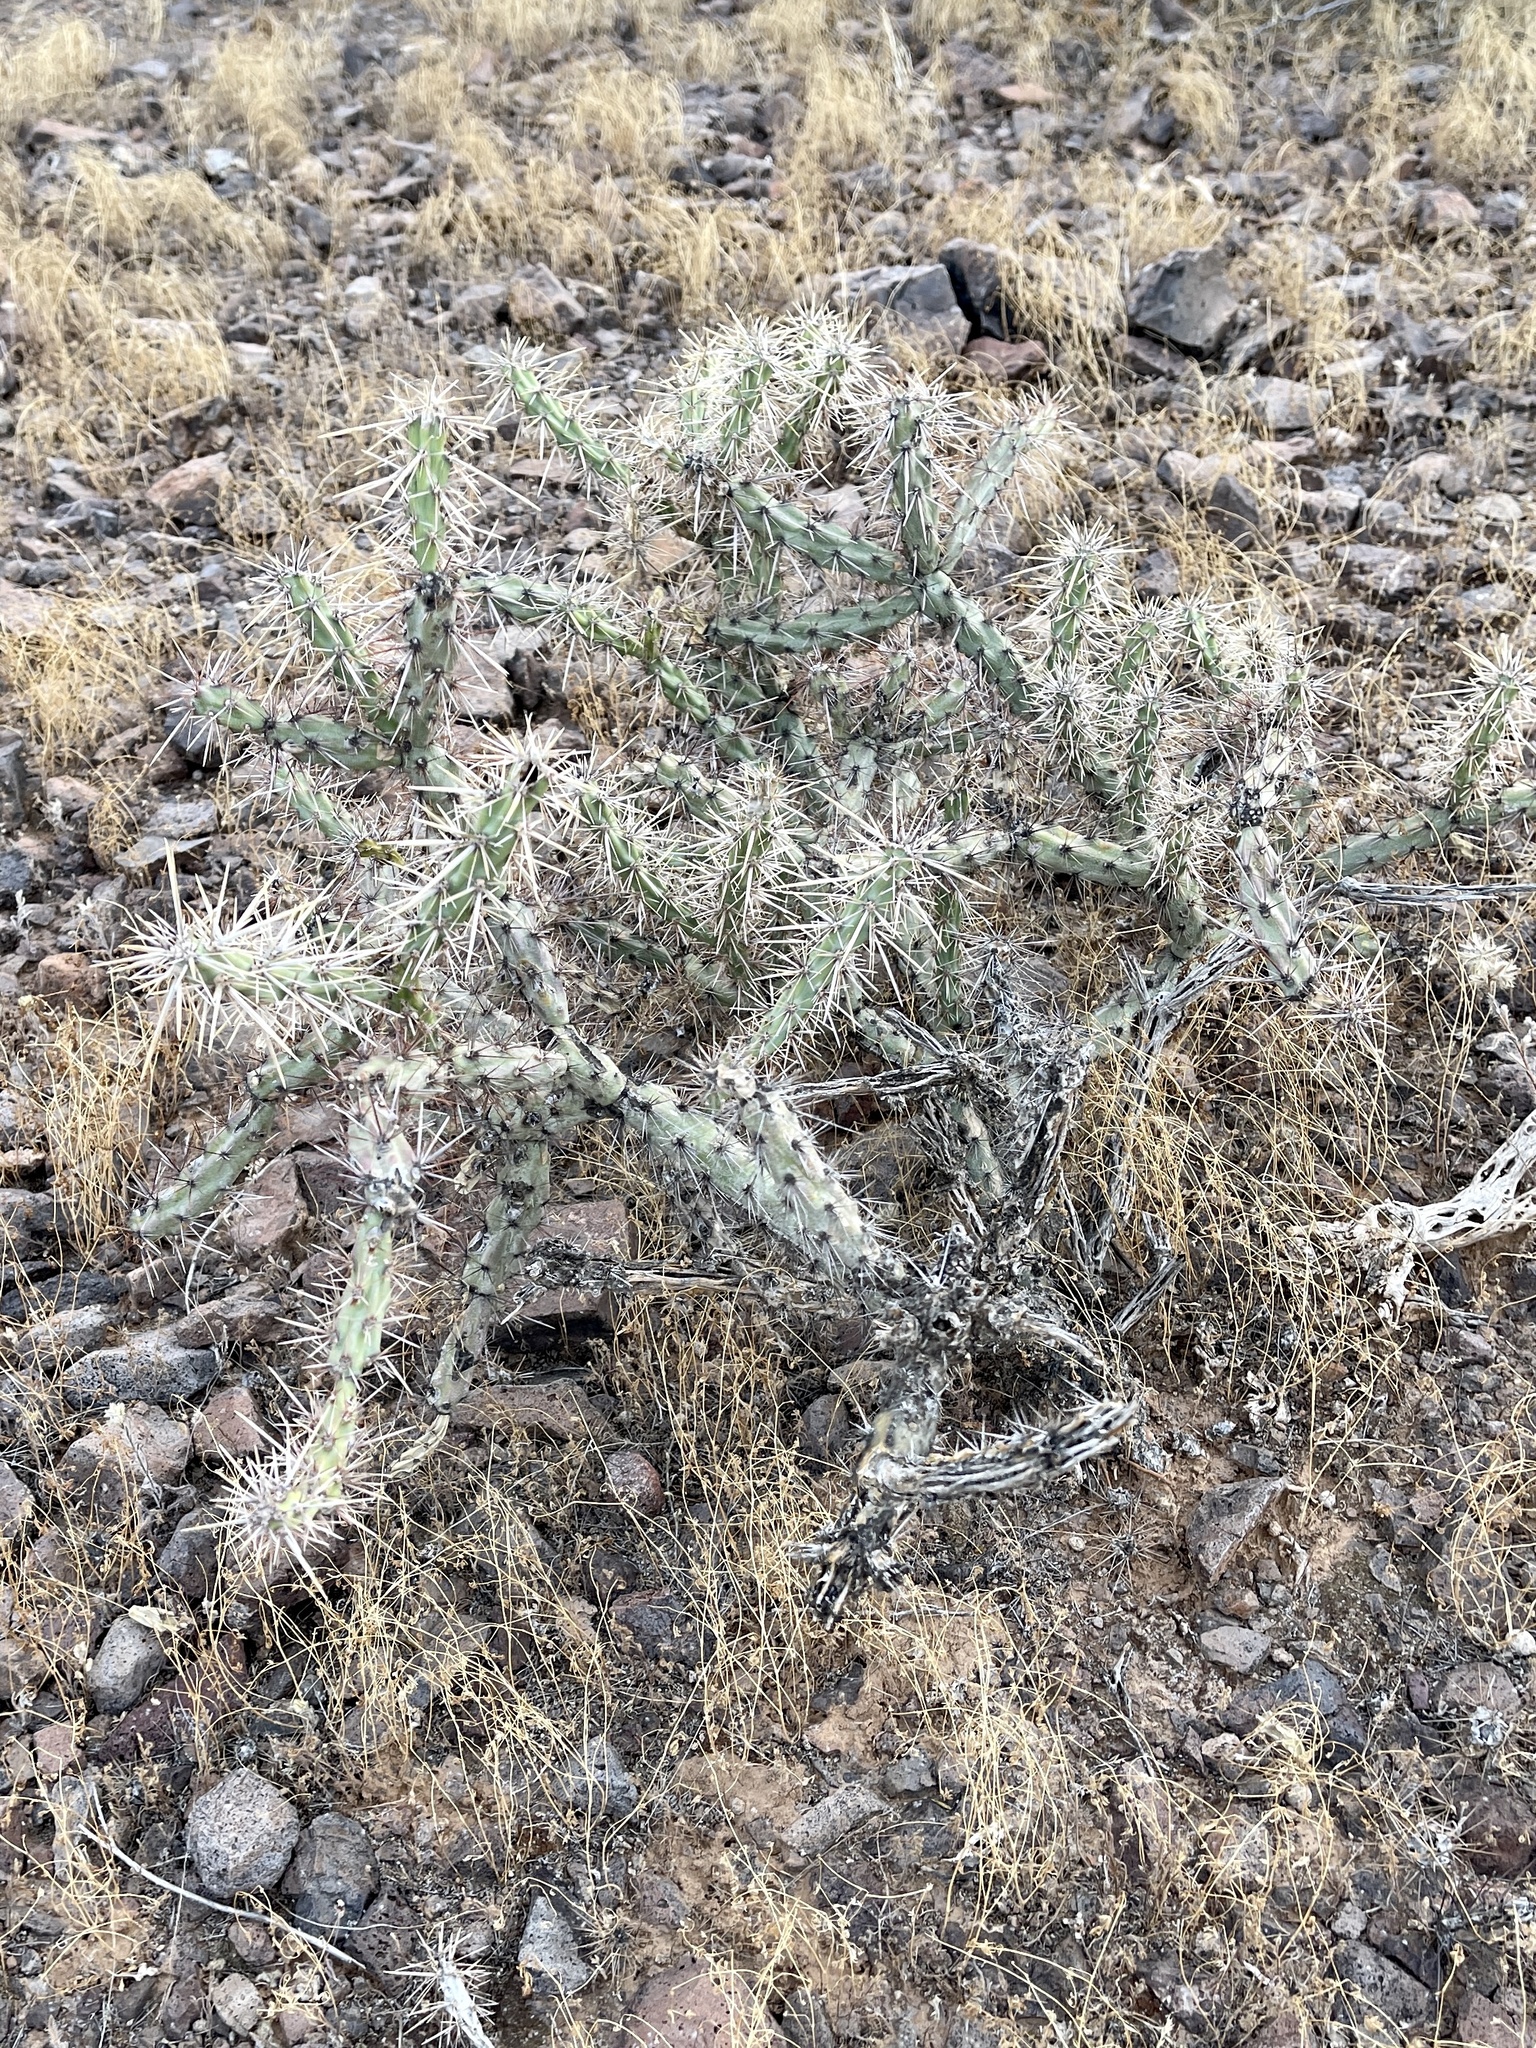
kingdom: Plantae
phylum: Tracheophyta
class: Magnoliopsida
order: Caryophyllales
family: Cactaceae
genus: Cylindropuntia
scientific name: Cylindropuntia acanthocarpa
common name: Buckhorn cholla
